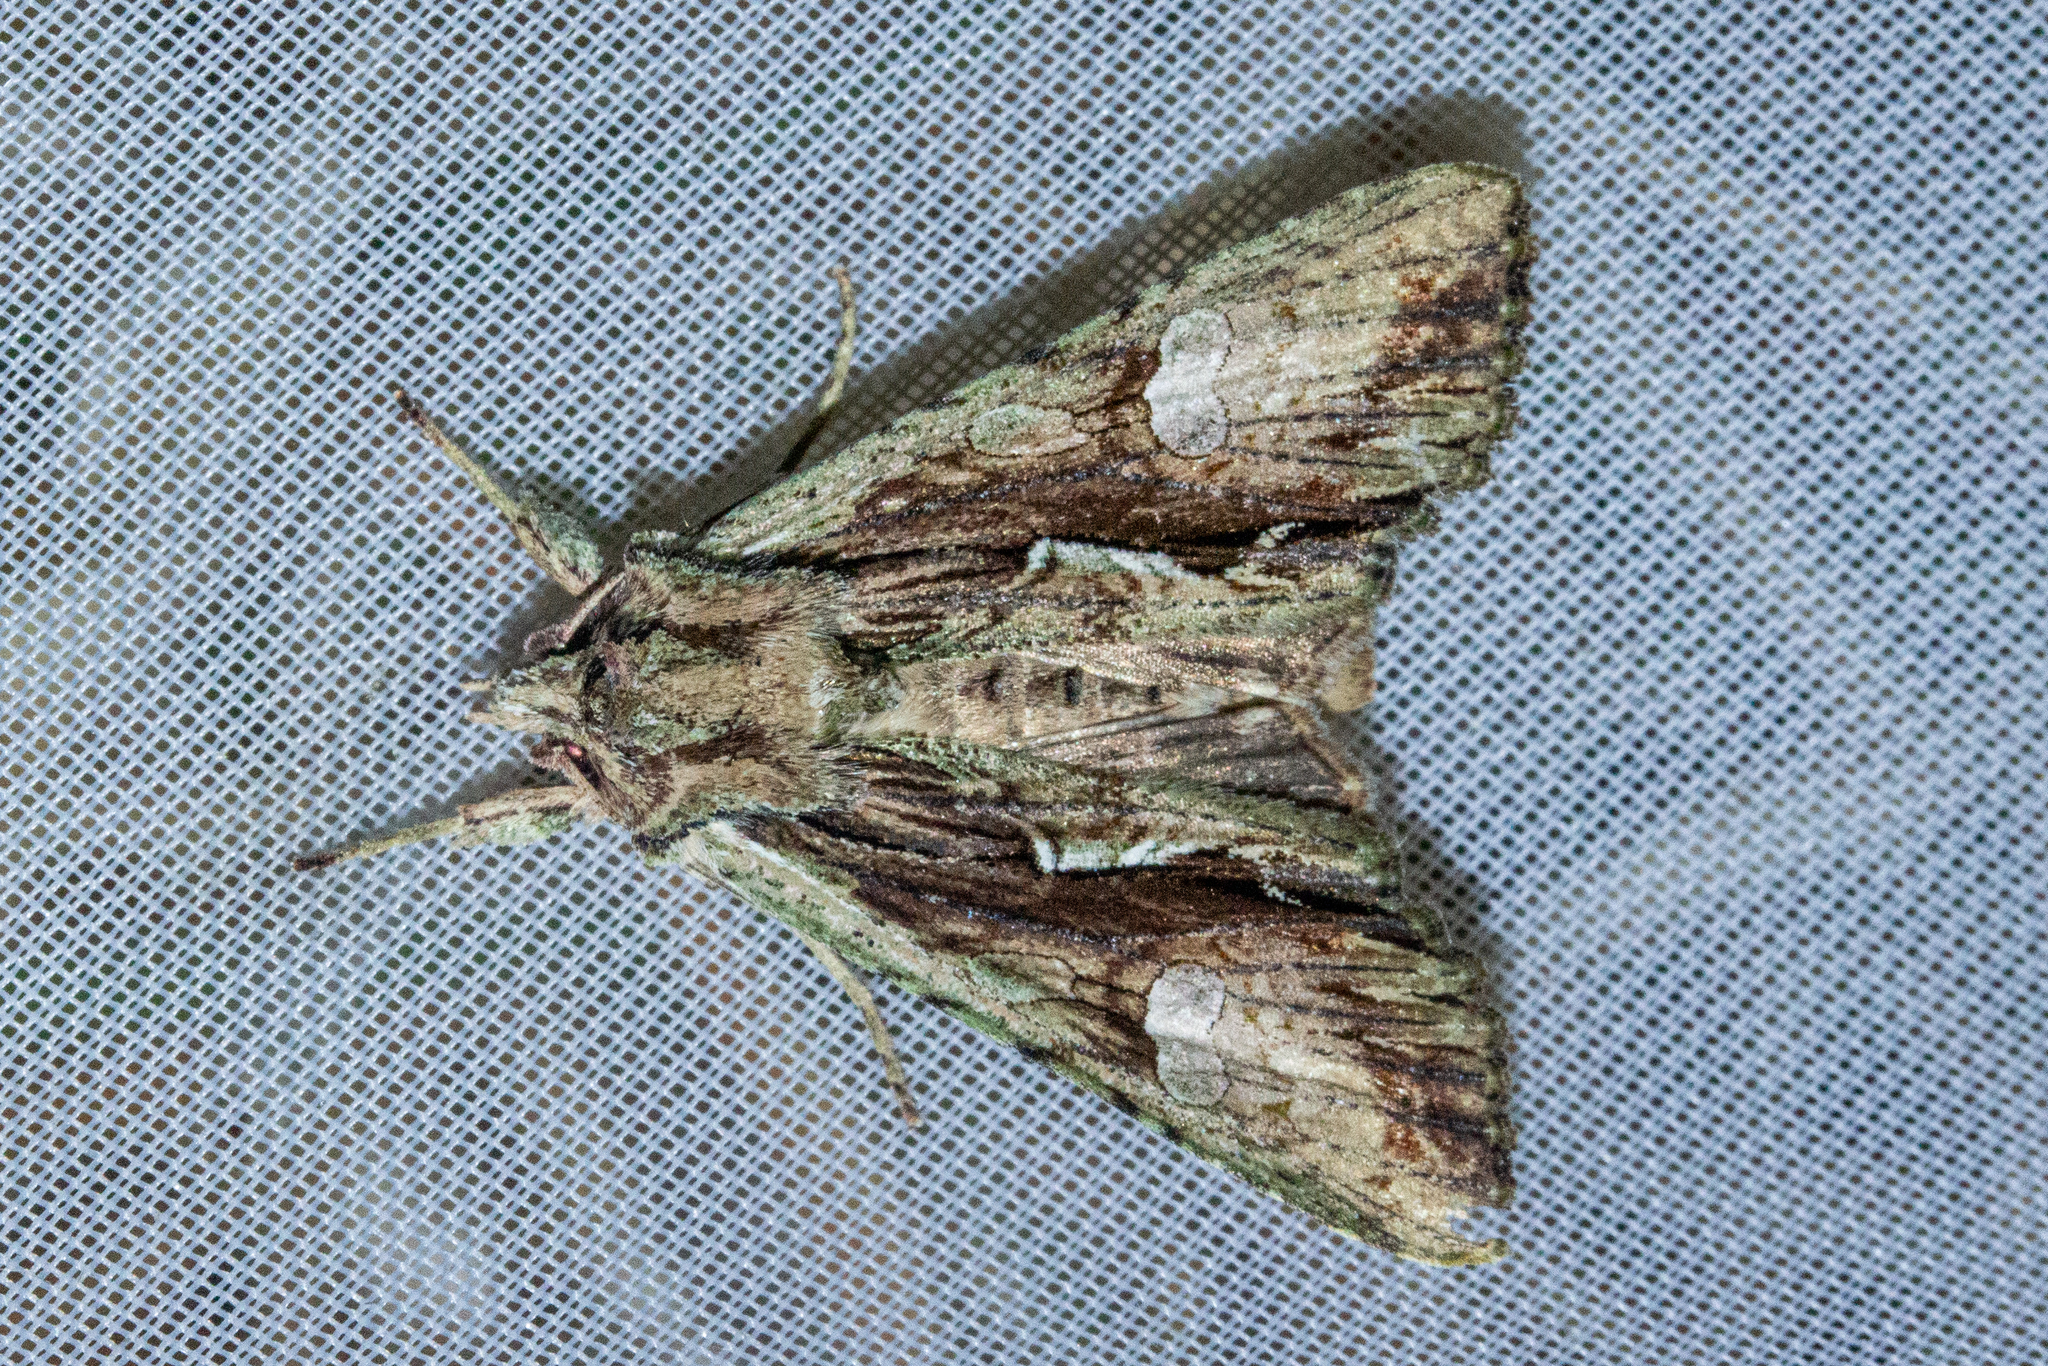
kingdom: Animalia
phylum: Arthropoda
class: Insecta
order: Lepidoptera
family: Noctuidae
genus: Meterana
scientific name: Meterana decorata
